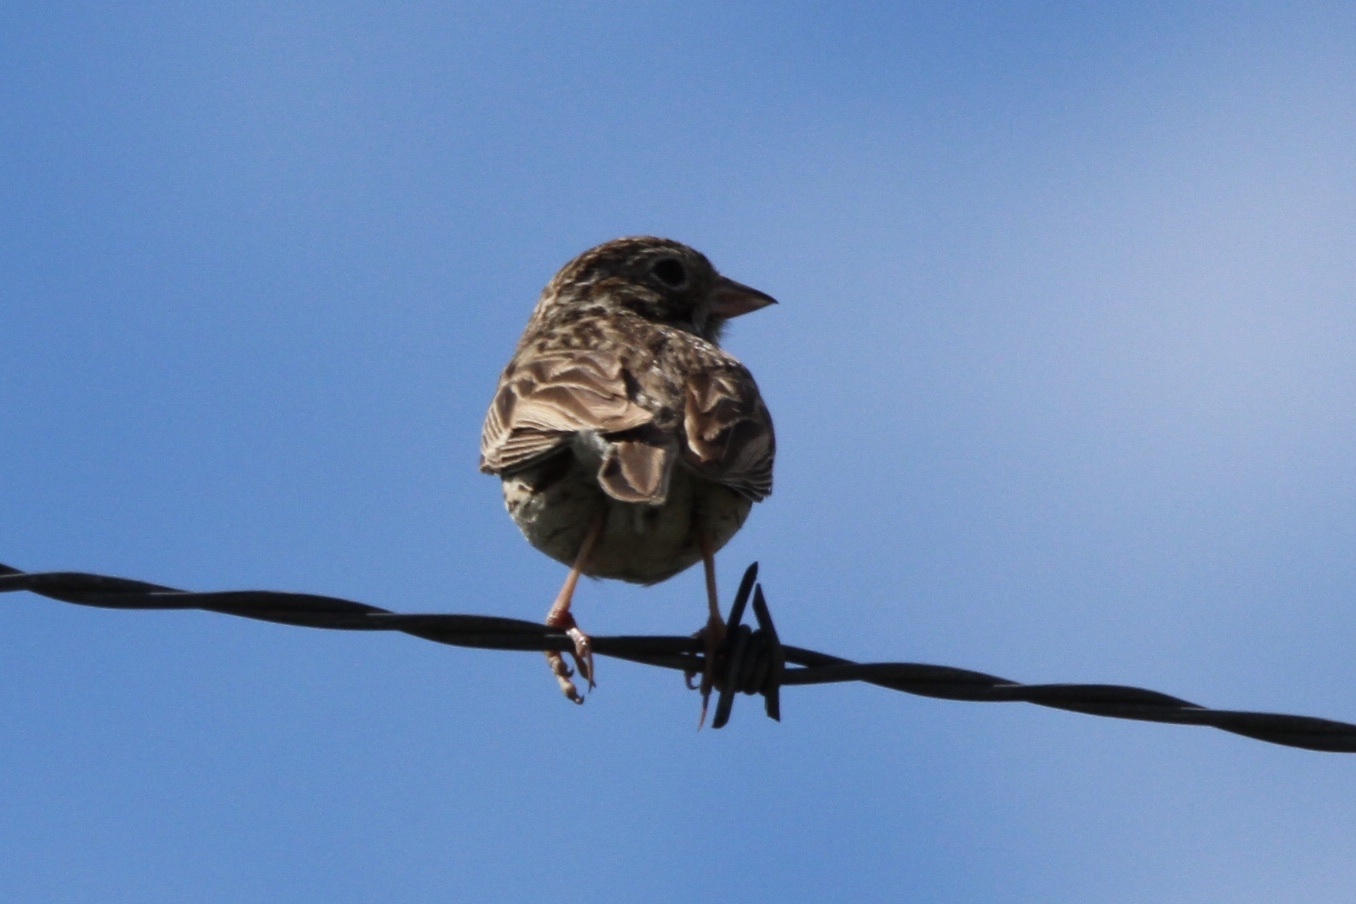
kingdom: Animalia
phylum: Chordata
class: Aves
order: Passeriformes
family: Passerellidae
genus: Pooecetes
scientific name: Pooecetes gramineus
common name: Vesper sparrow
